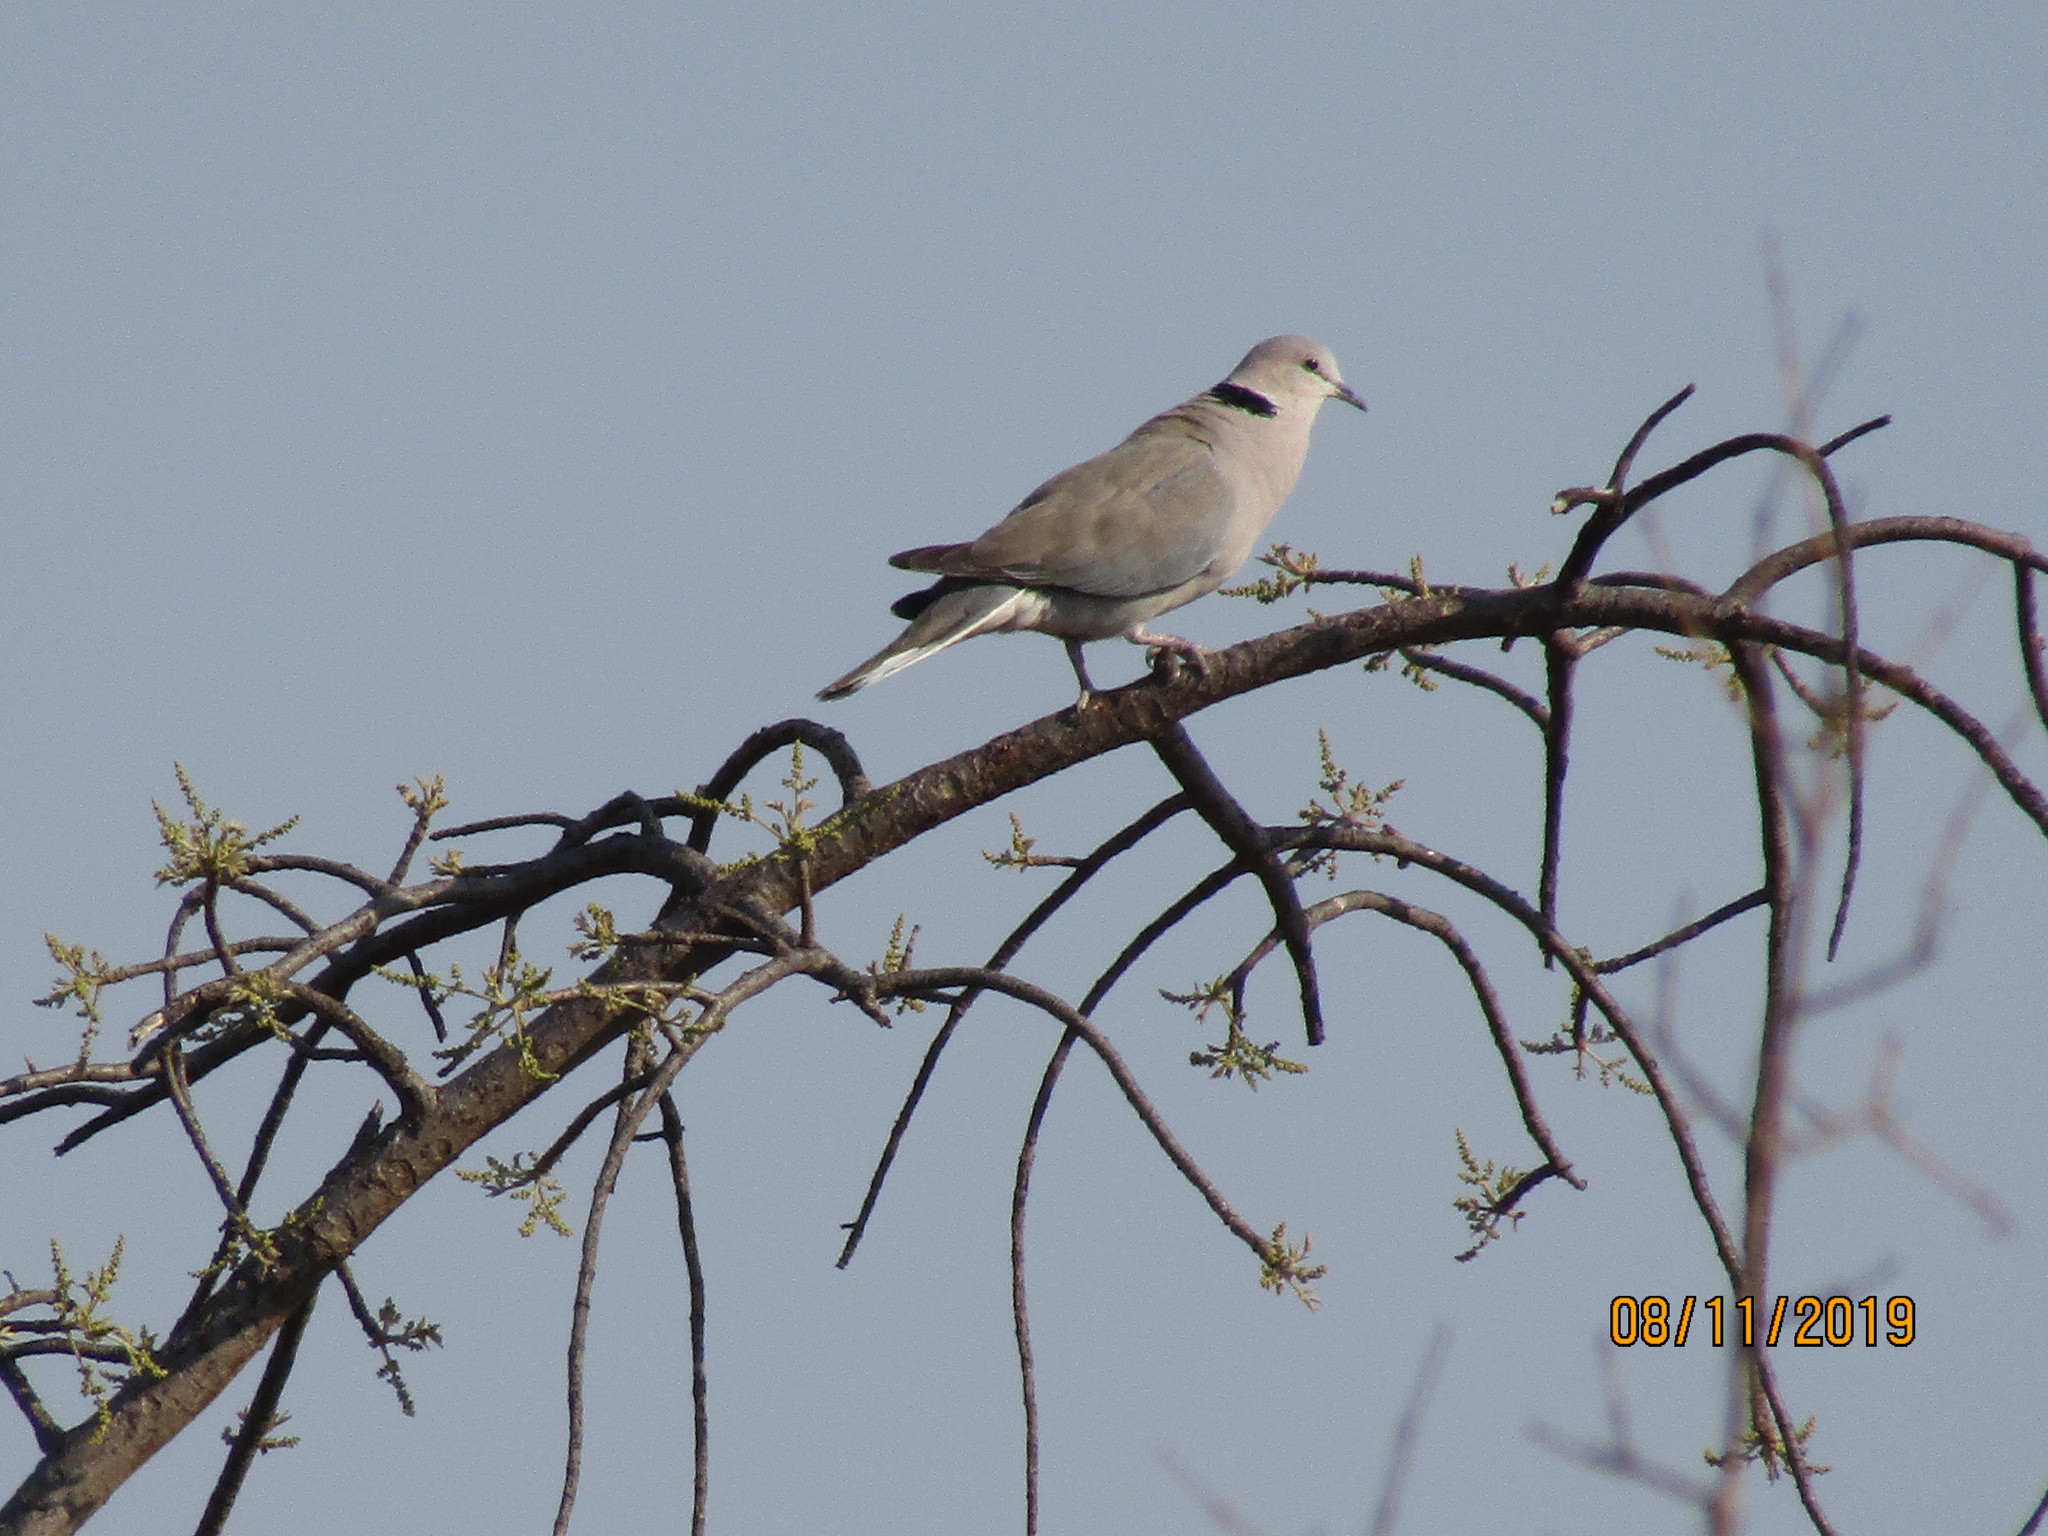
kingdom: Animalia
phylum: Chordata
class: Aves
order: Columbiformes
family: Columbidae
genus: Streptopelia
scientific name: Streptopelia capicola
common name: Ring-necked dove
